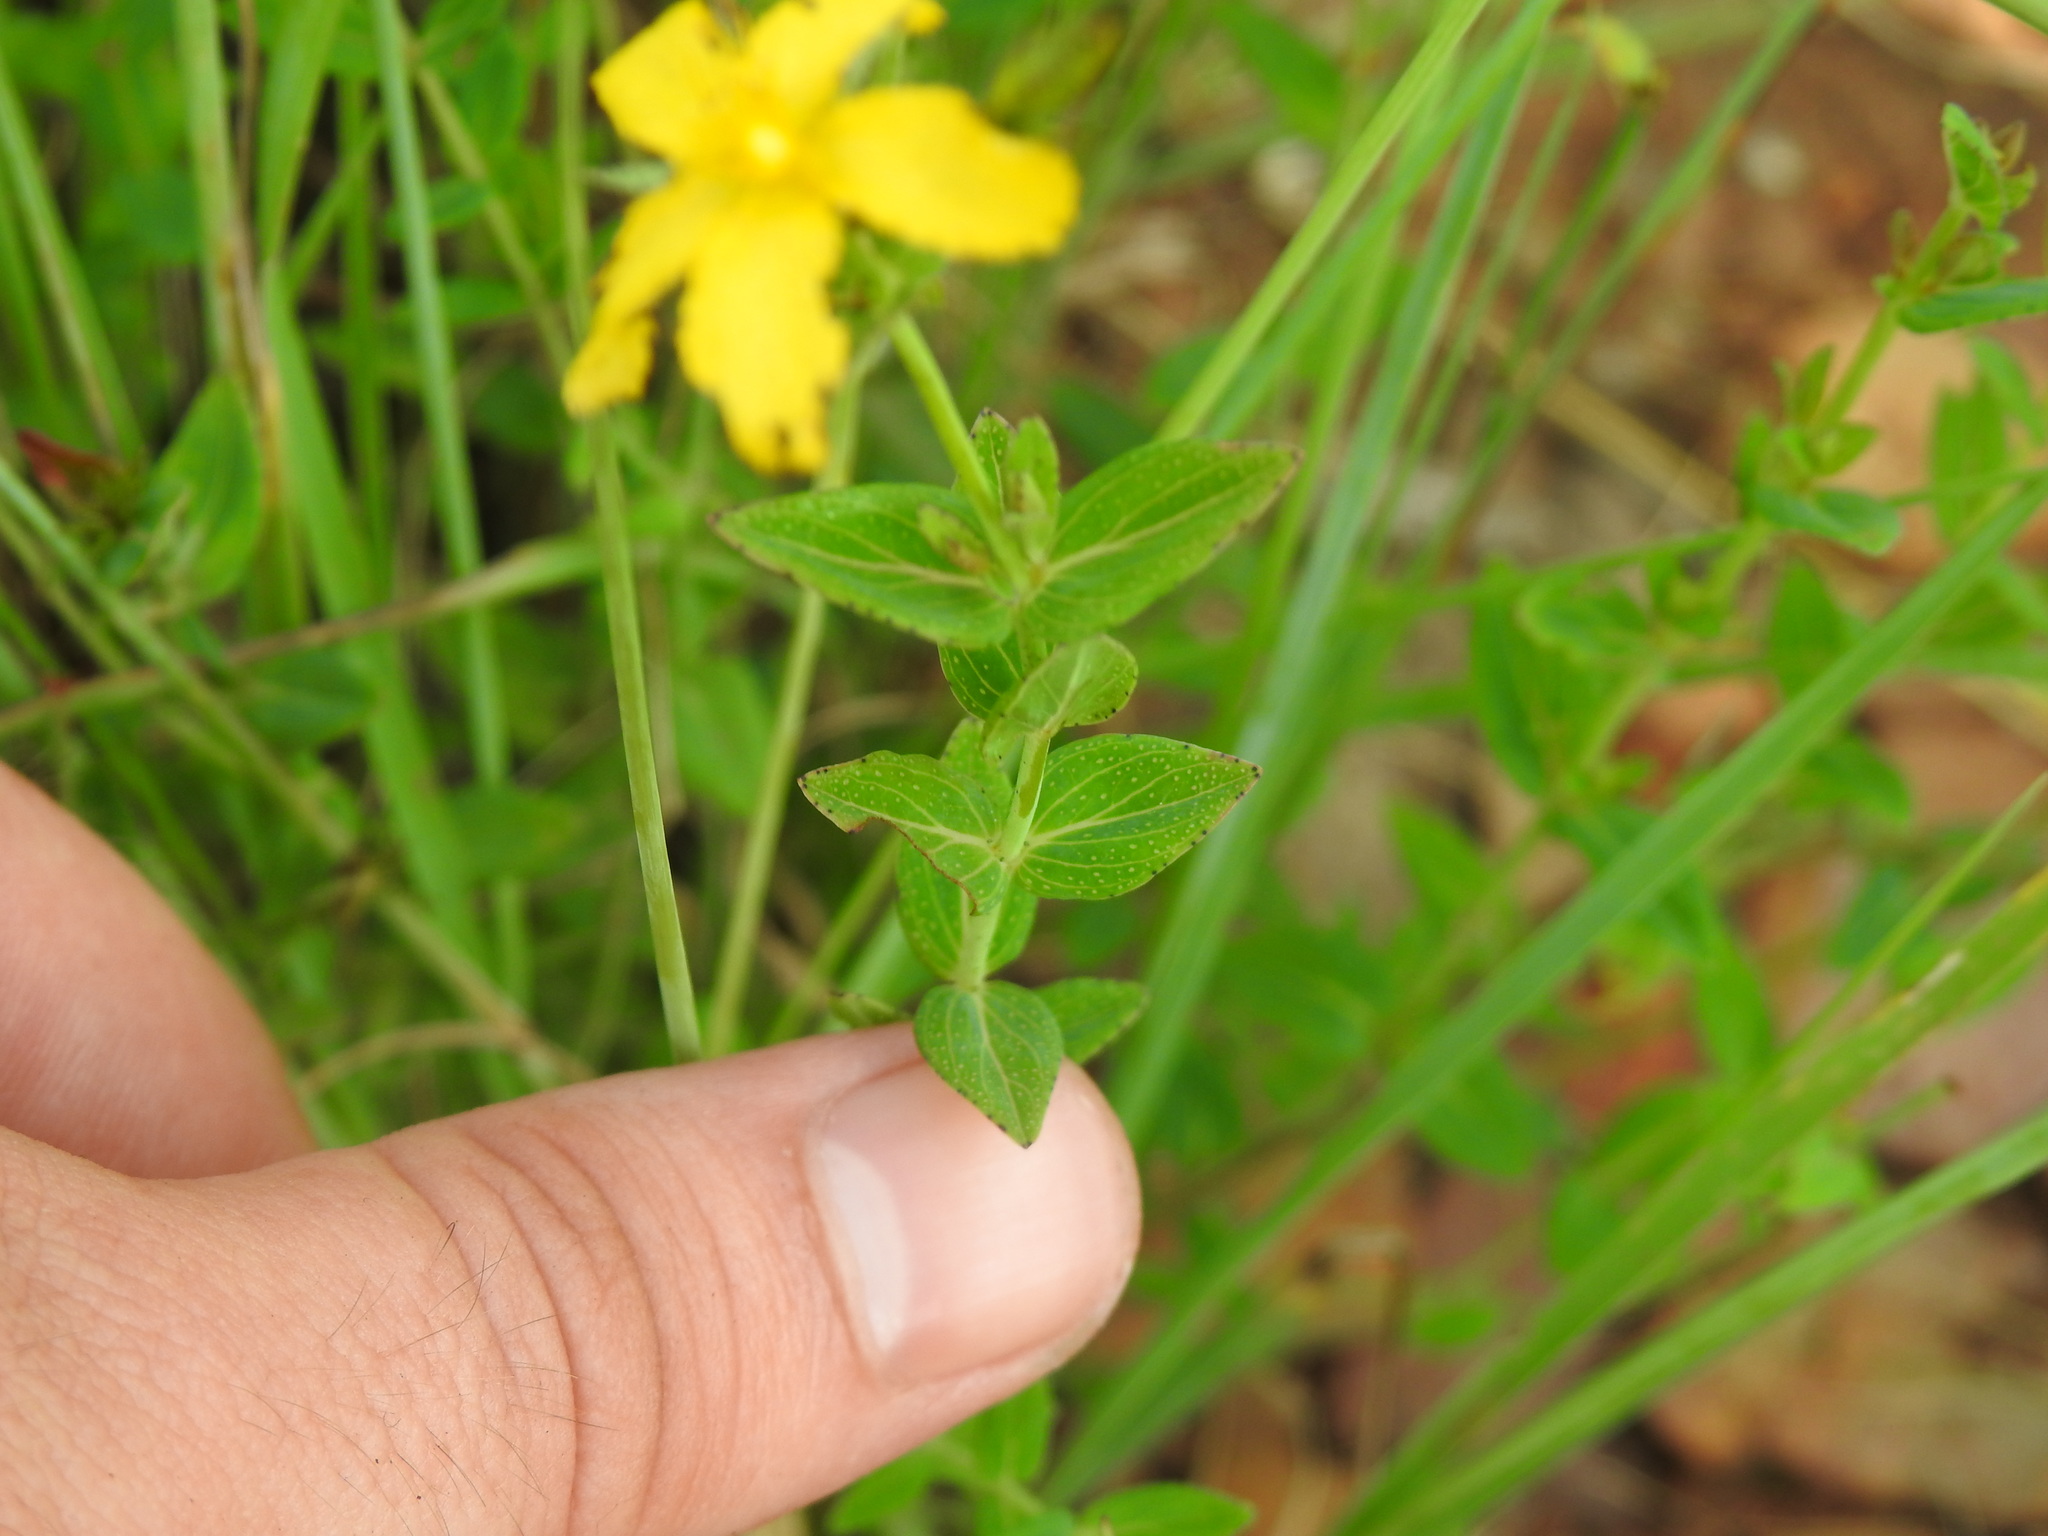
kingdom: Plantae
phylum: Tracheophyta
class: Magnoliopsida
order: Malpighiales
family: Hypericaceae
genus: Hypericum
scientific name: Hypericum aethiopicum
